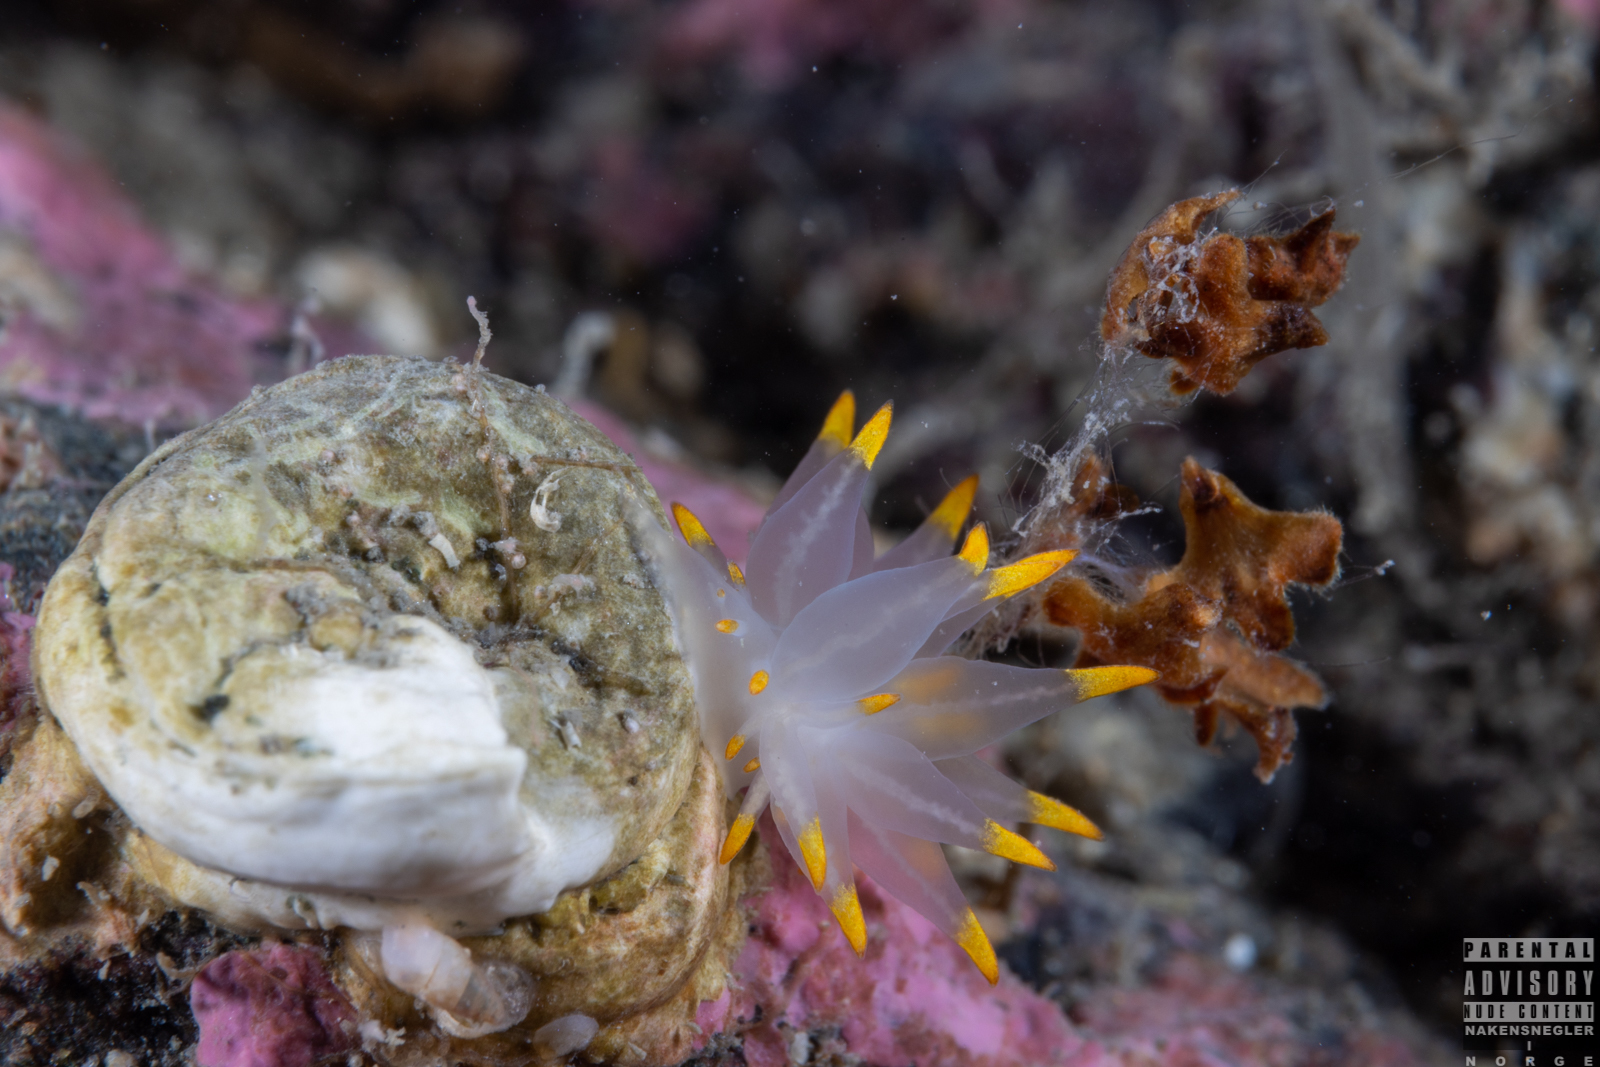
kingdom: Animalia
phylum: Mollusca
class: Gastropoda
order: Nudibranchia
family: Eubranchidae
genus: Amphorina
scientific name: Amphorina farrani
